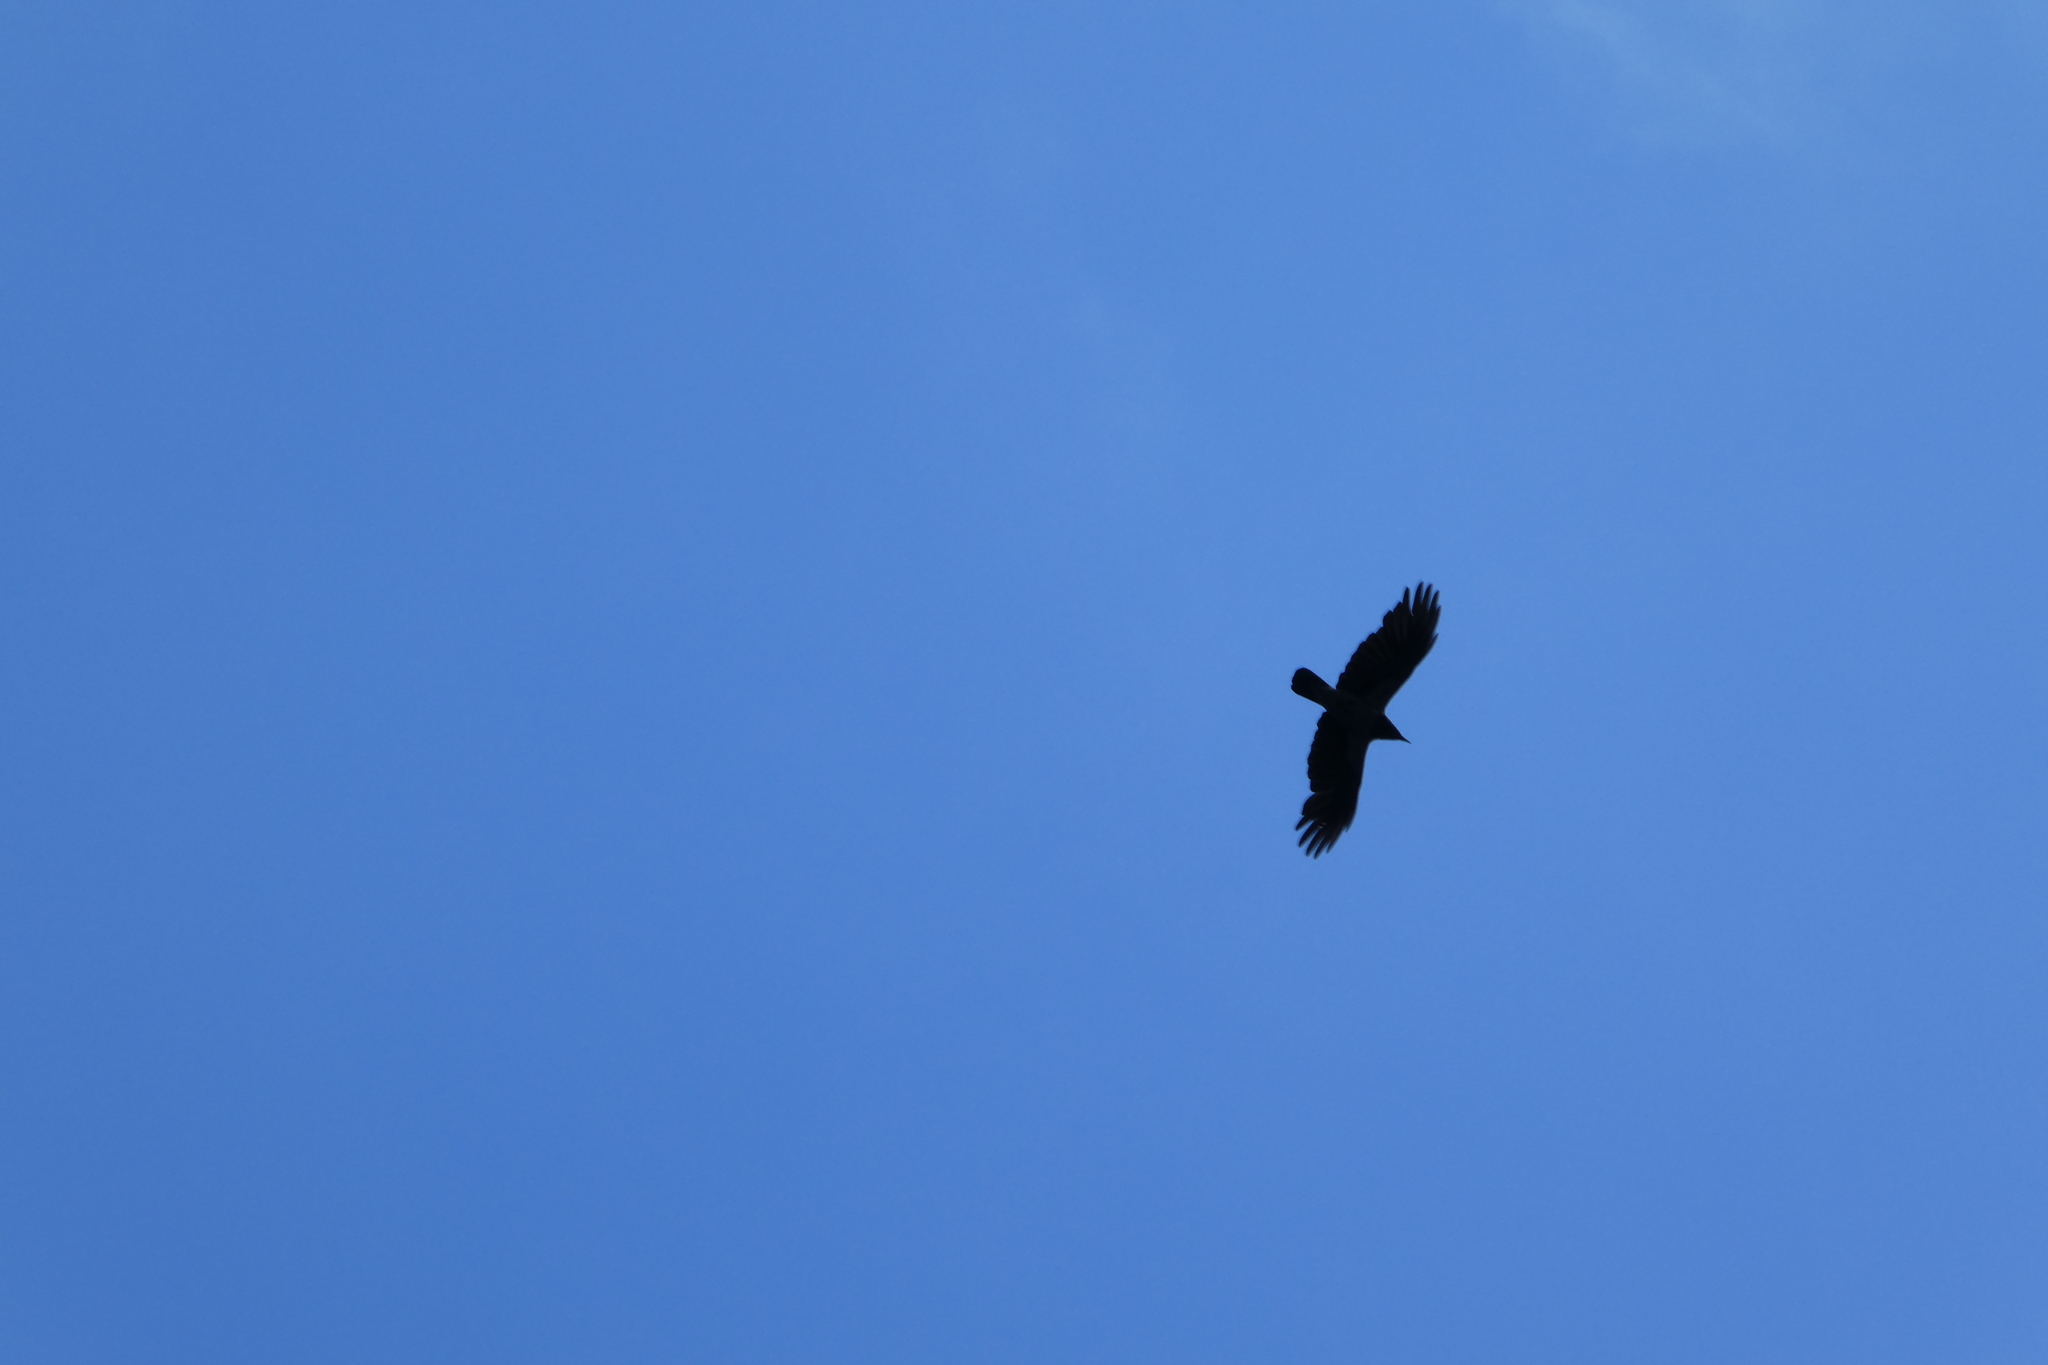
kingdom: Animalia
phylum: Chordata
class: Aves
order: Passeriformes
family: Corvidae
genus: Corvus
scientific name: Corvus cornix
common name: Hooded crow
